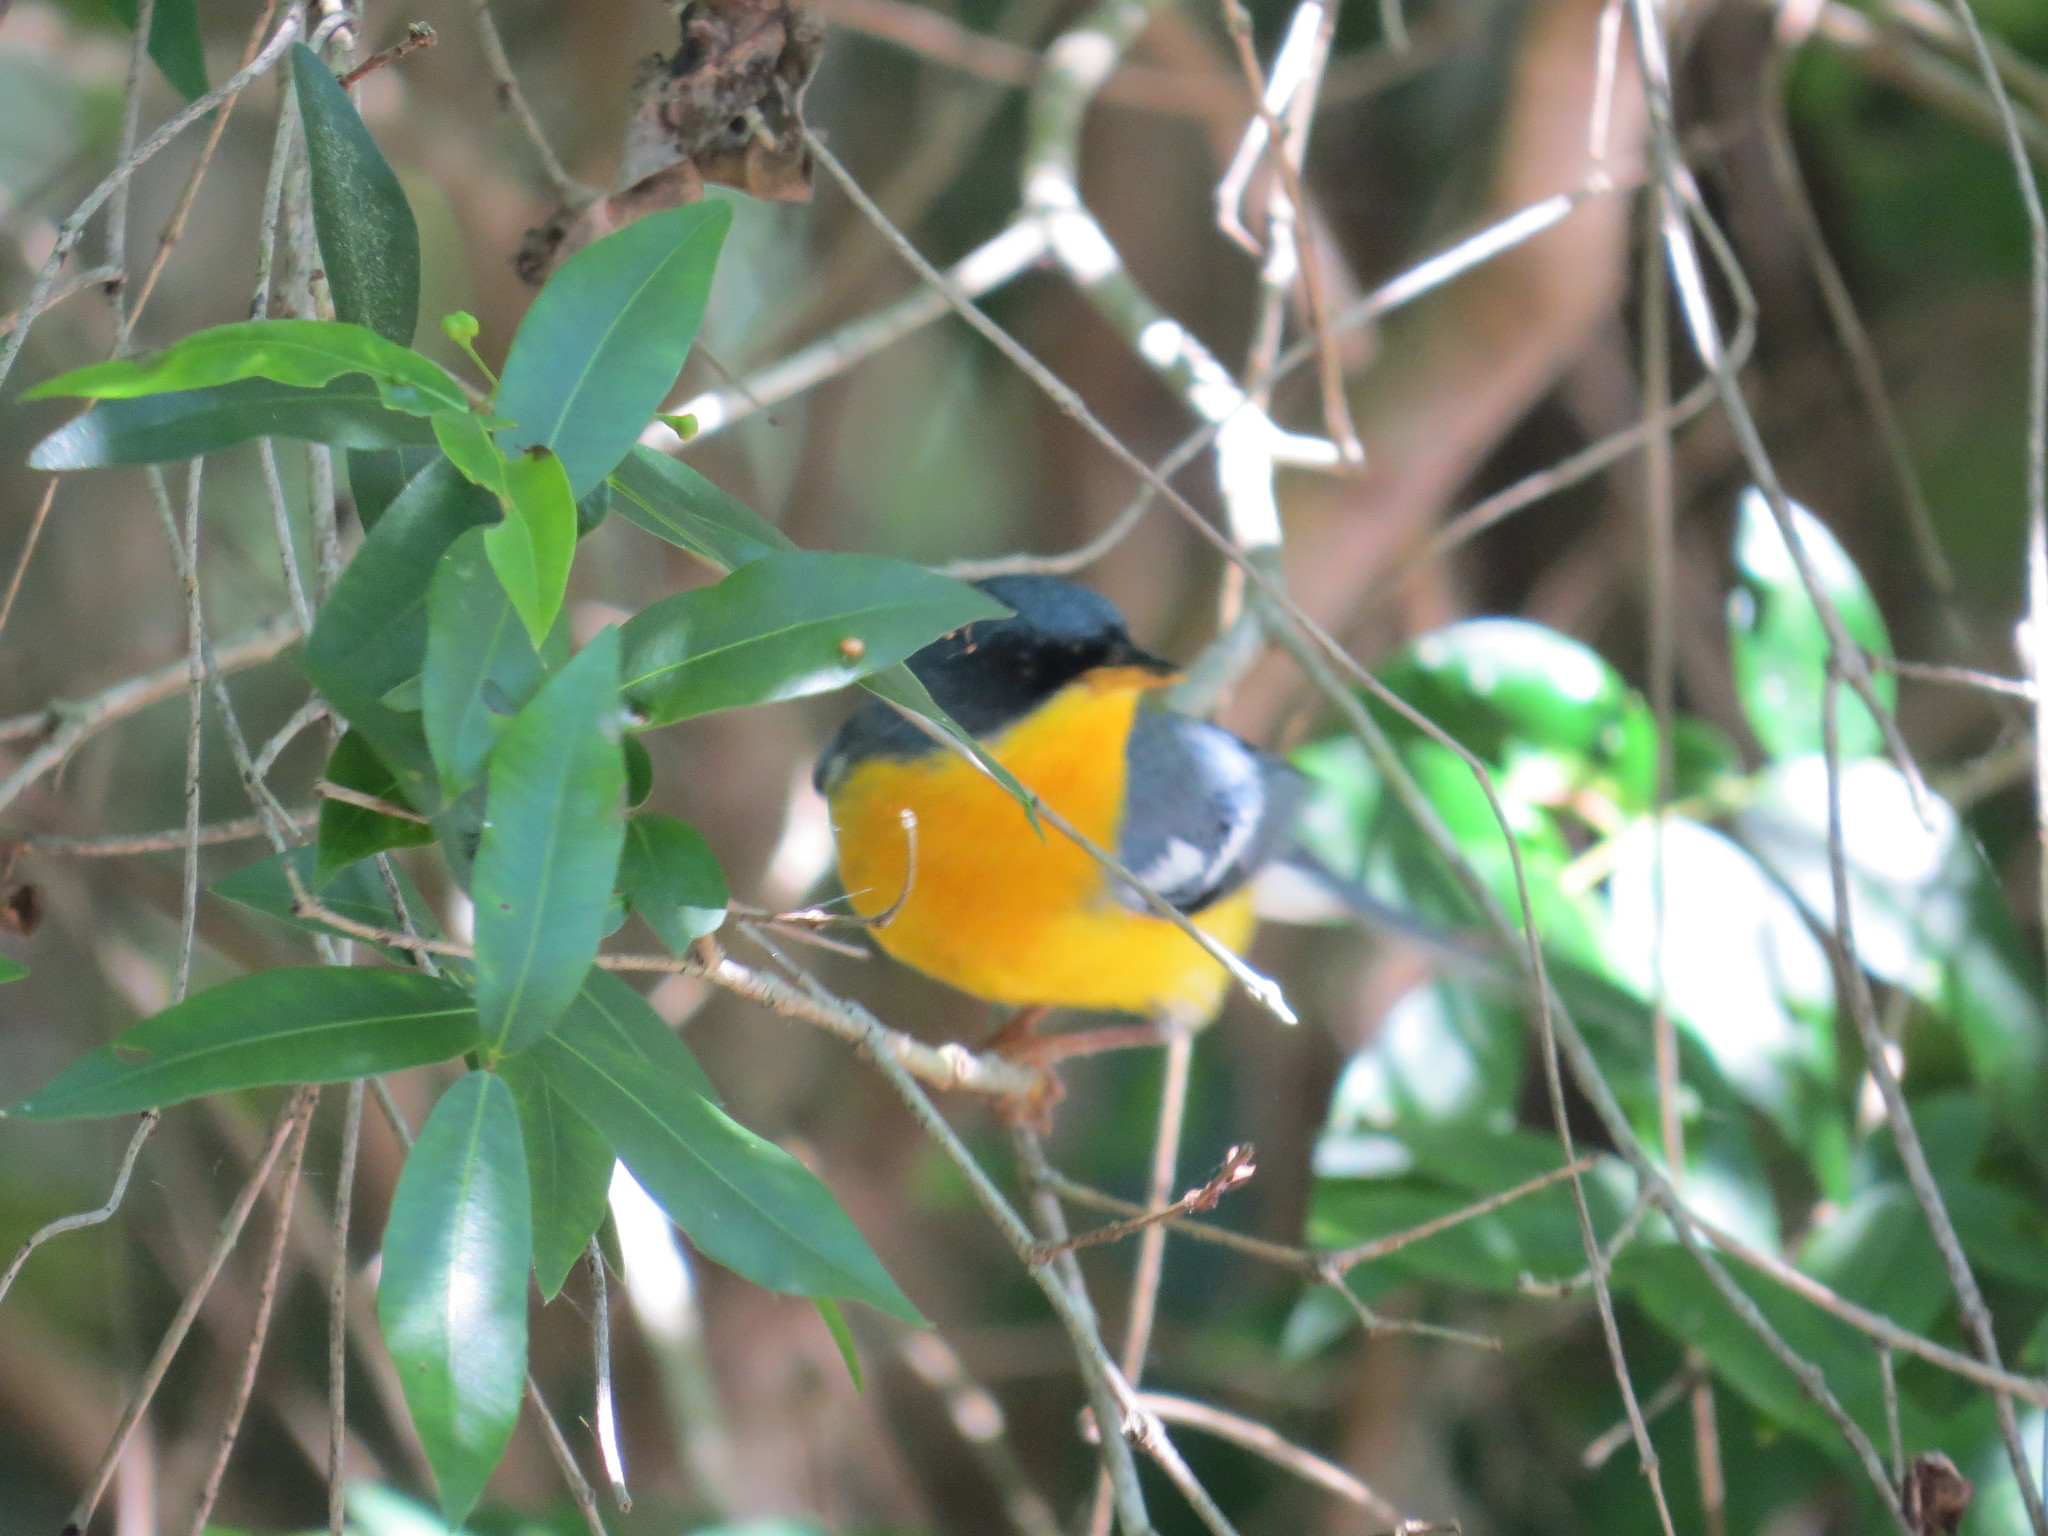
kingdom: Animalia
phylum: Chordata
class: Aves
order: Passeriformes
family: Parulidae
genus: Setophaga
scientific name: Setophaga pitiayumi
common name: Tropical parula
